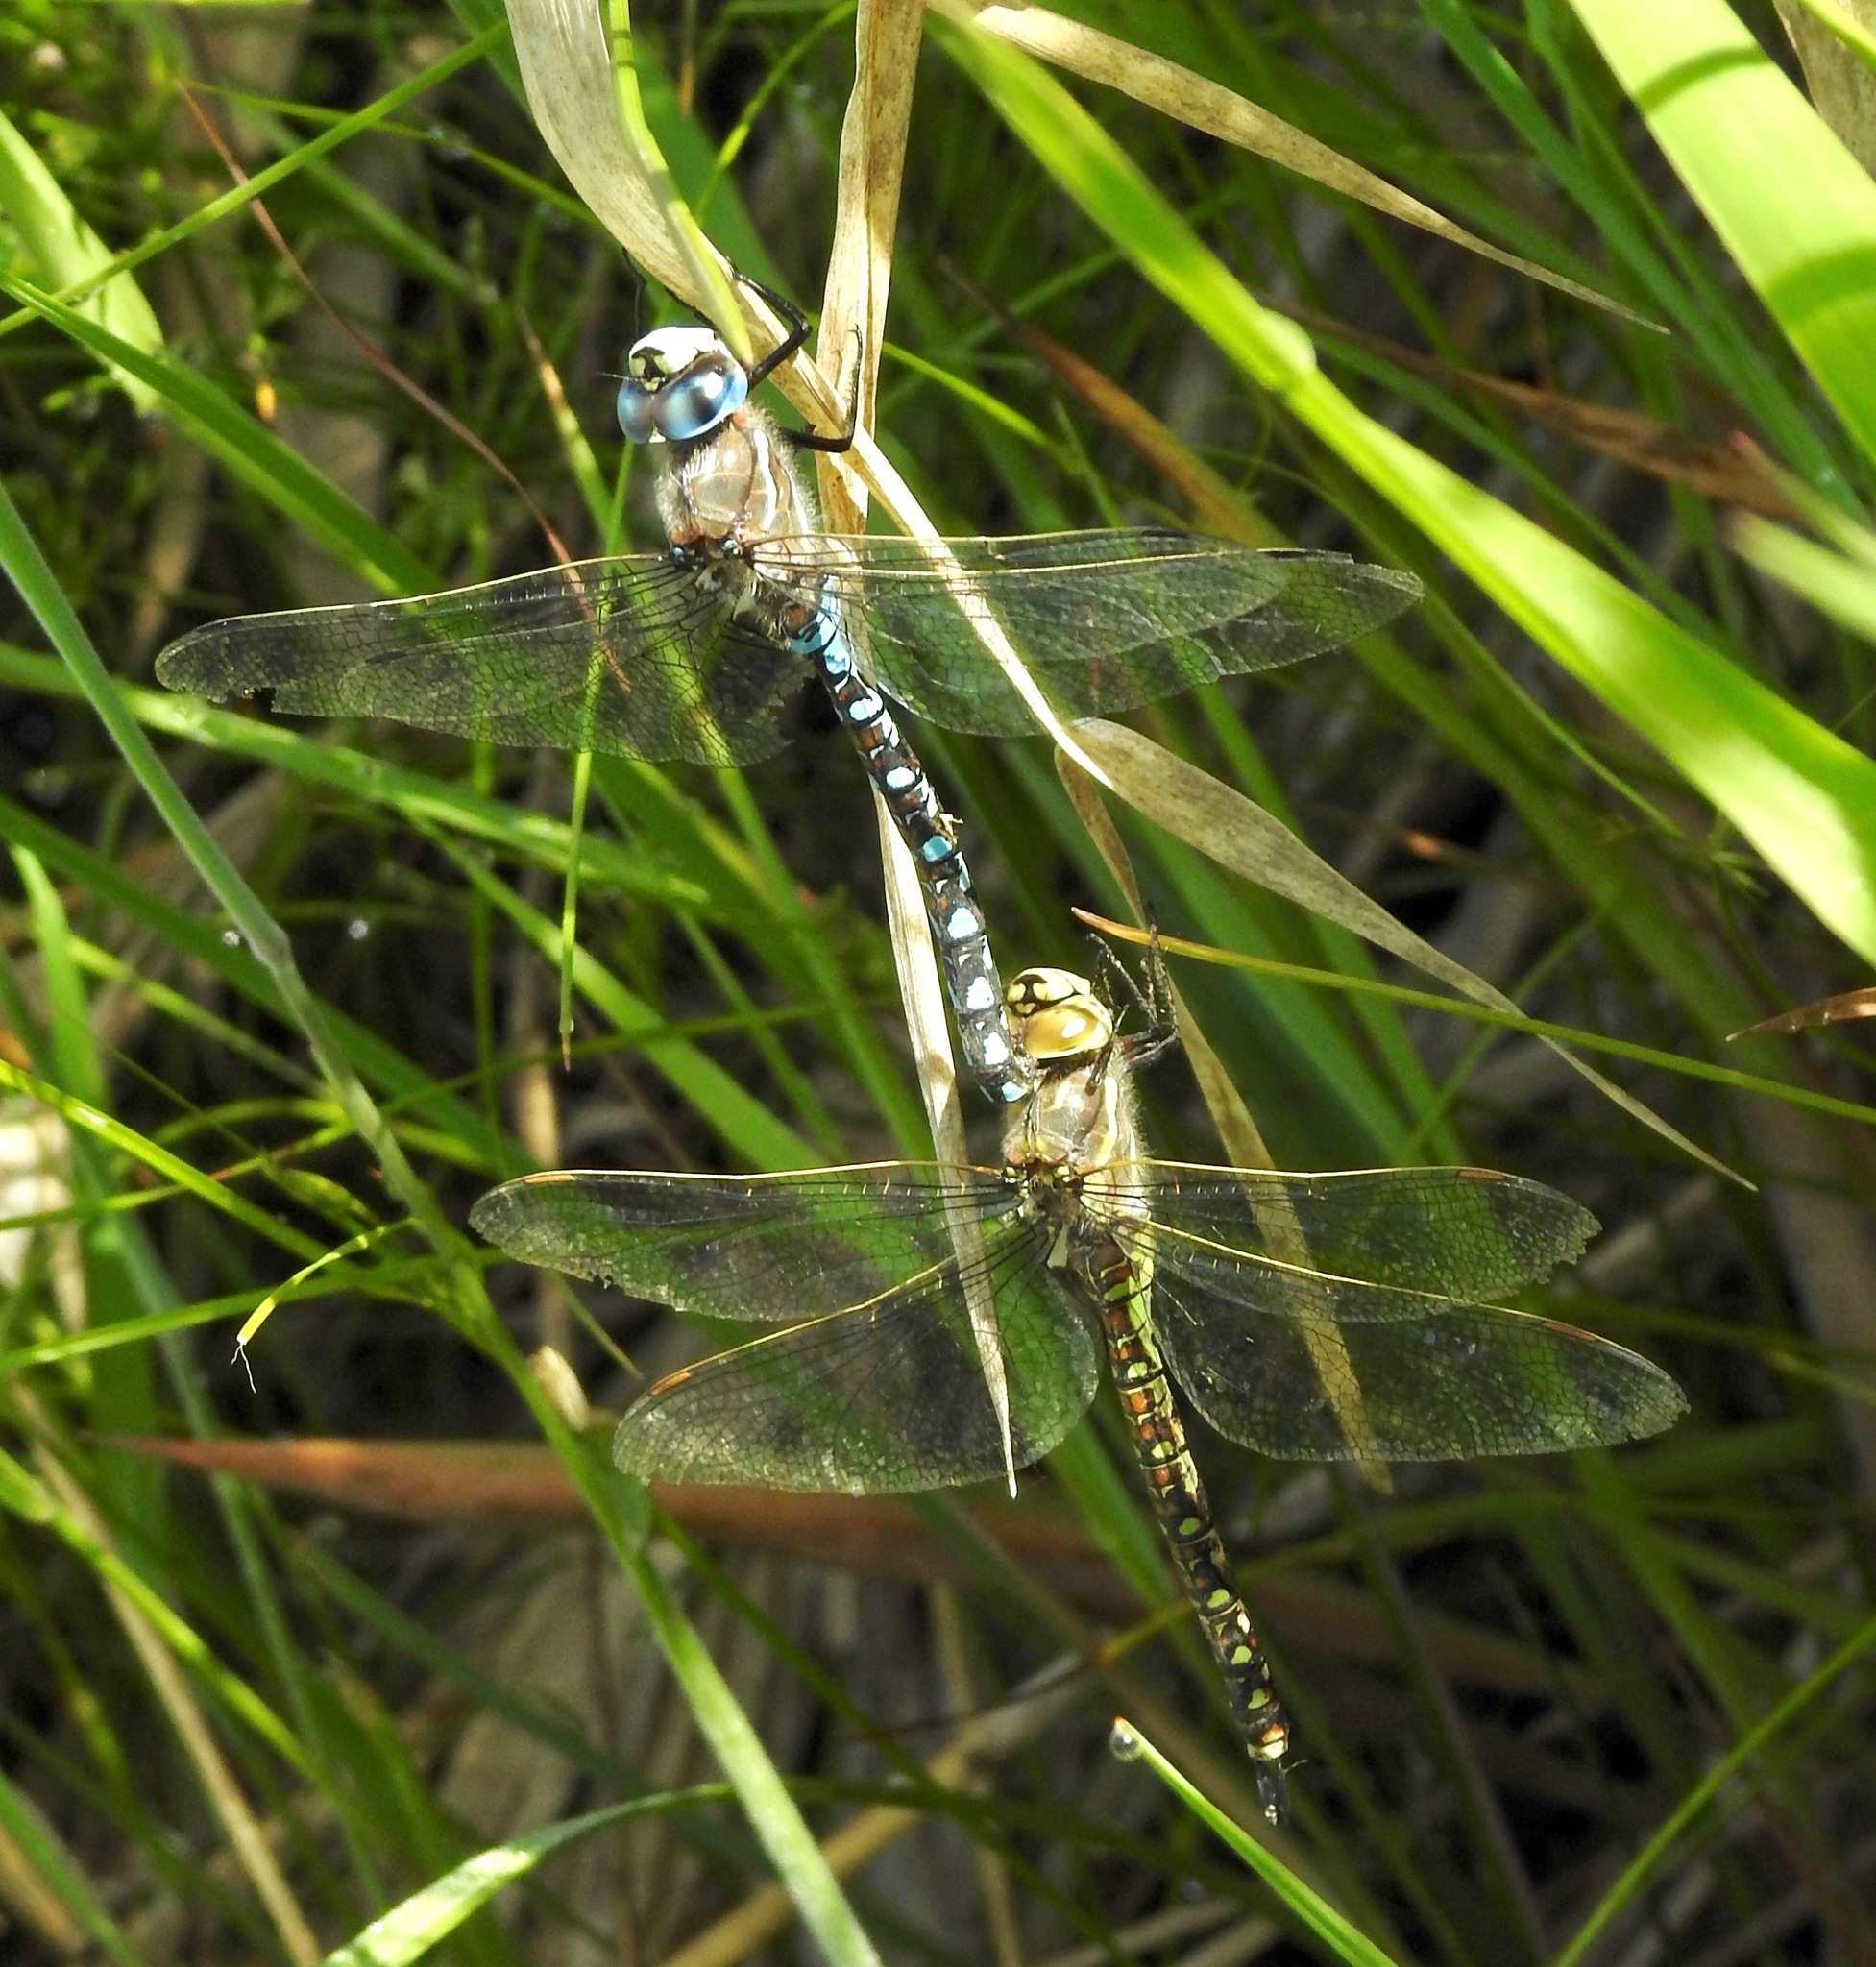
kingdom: Animalia
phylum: Arthropoda
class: Insecta
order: Odonata
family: Aeshnidae
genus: Rhionaeschna
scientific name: Rhionaeschna californica
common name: California darner
